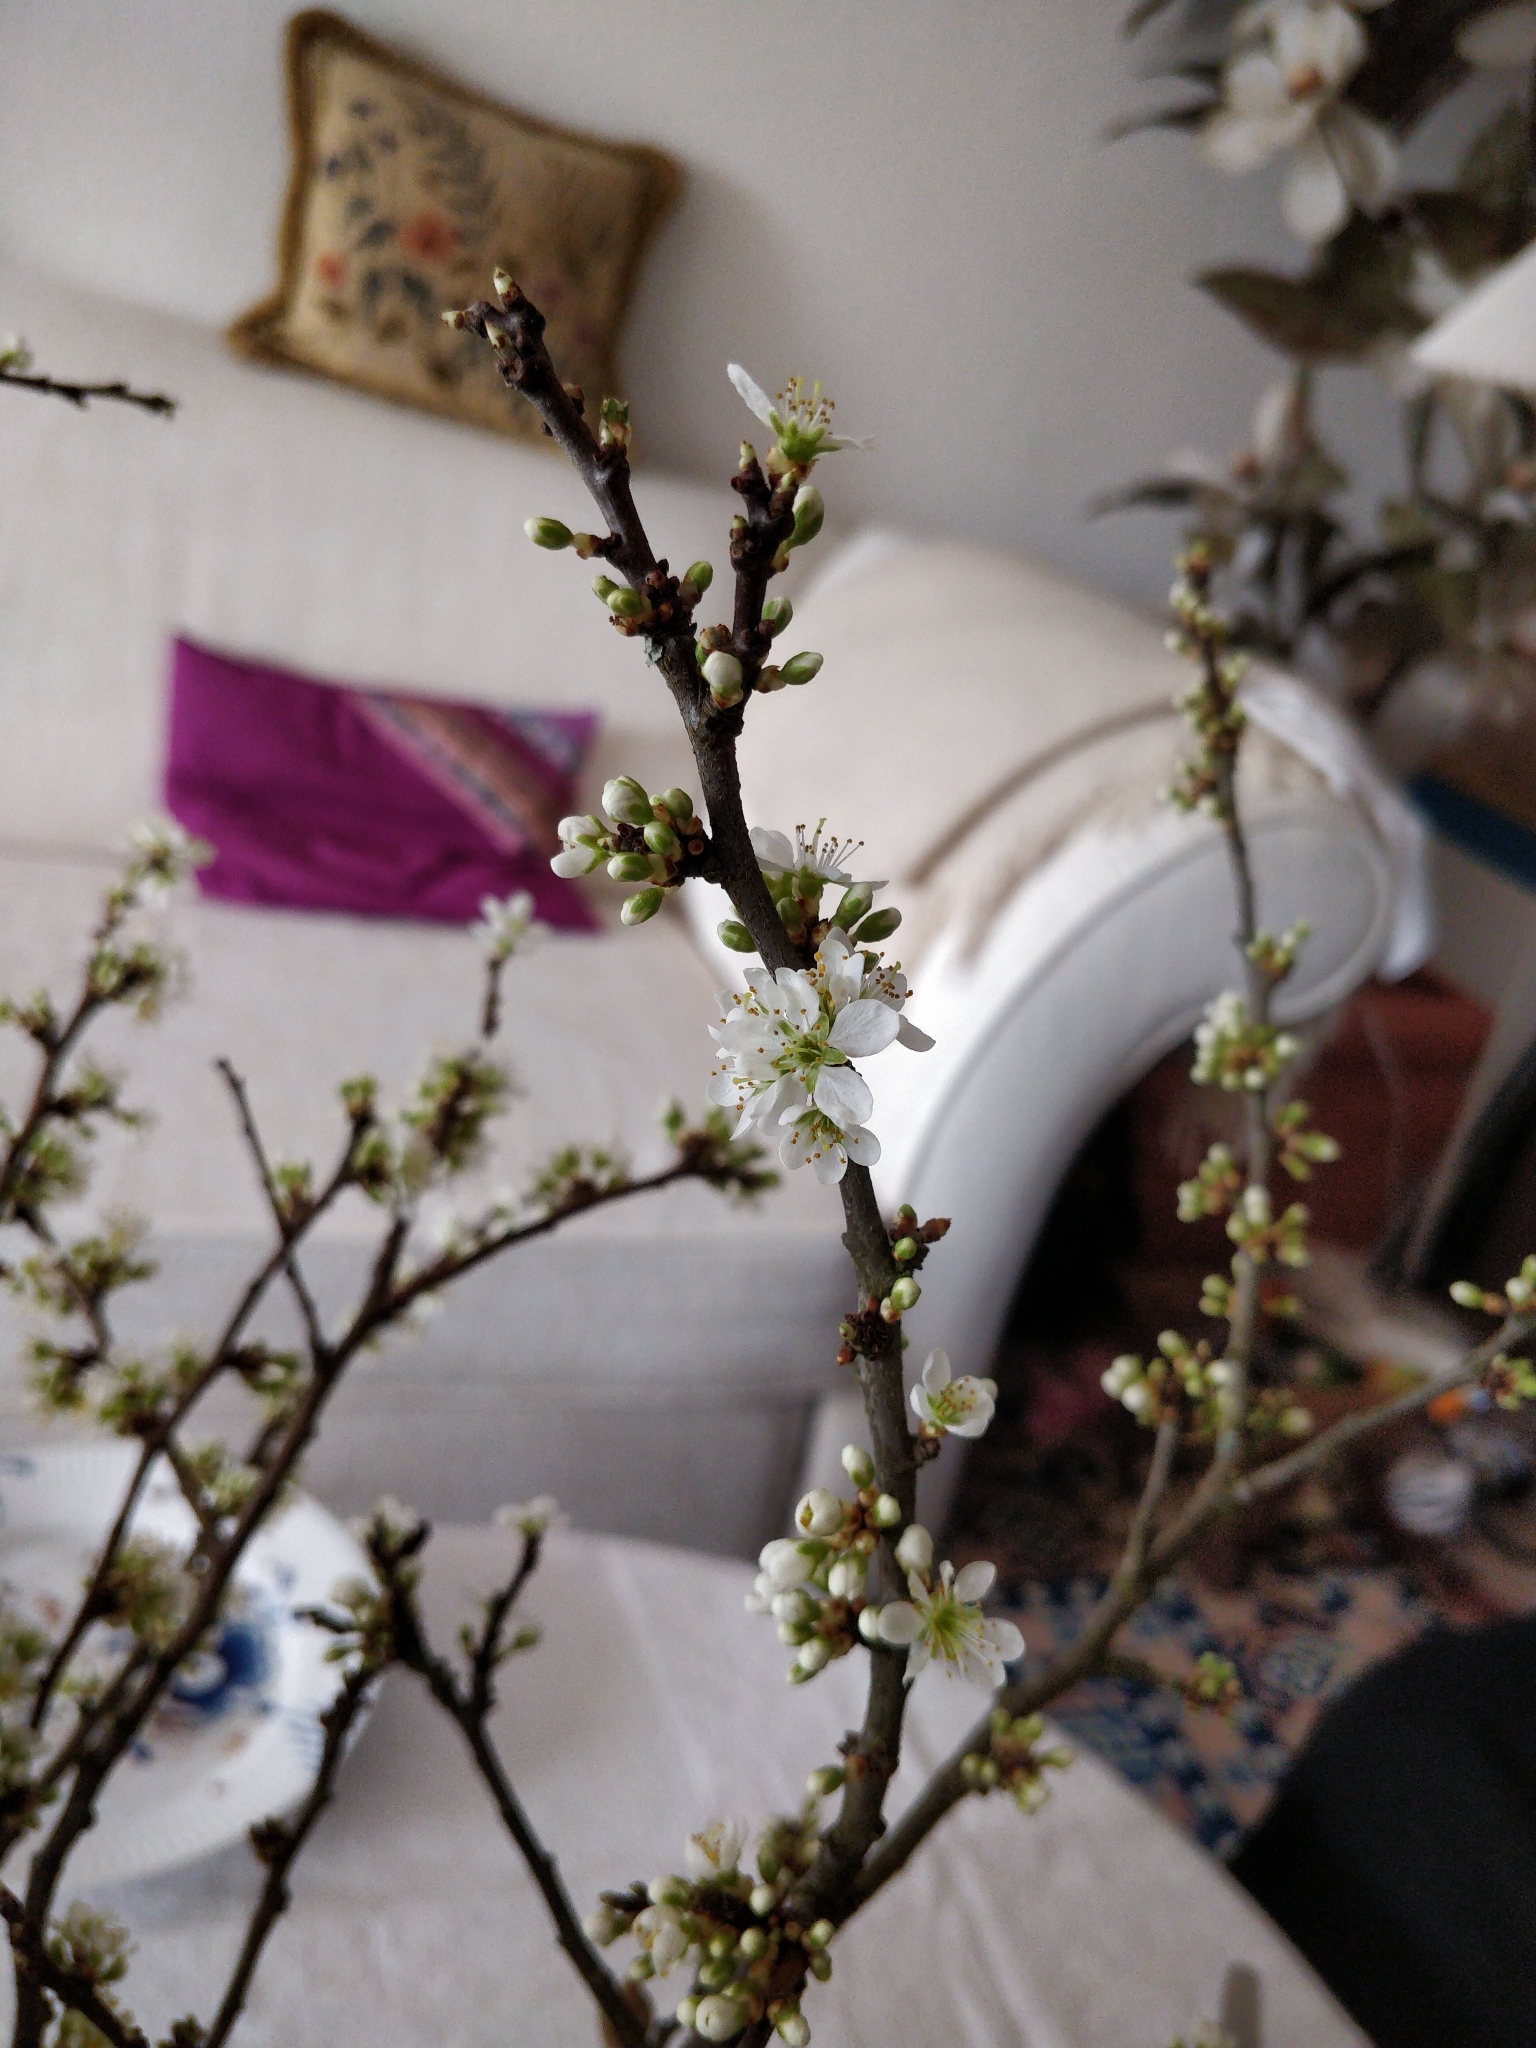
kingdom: Plantae
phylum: Tracheophyta
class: Magnoliopsida
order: Rosales
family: Rosaceae
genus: Prunus
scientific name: Prunus spinosa
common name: Blackthorn
